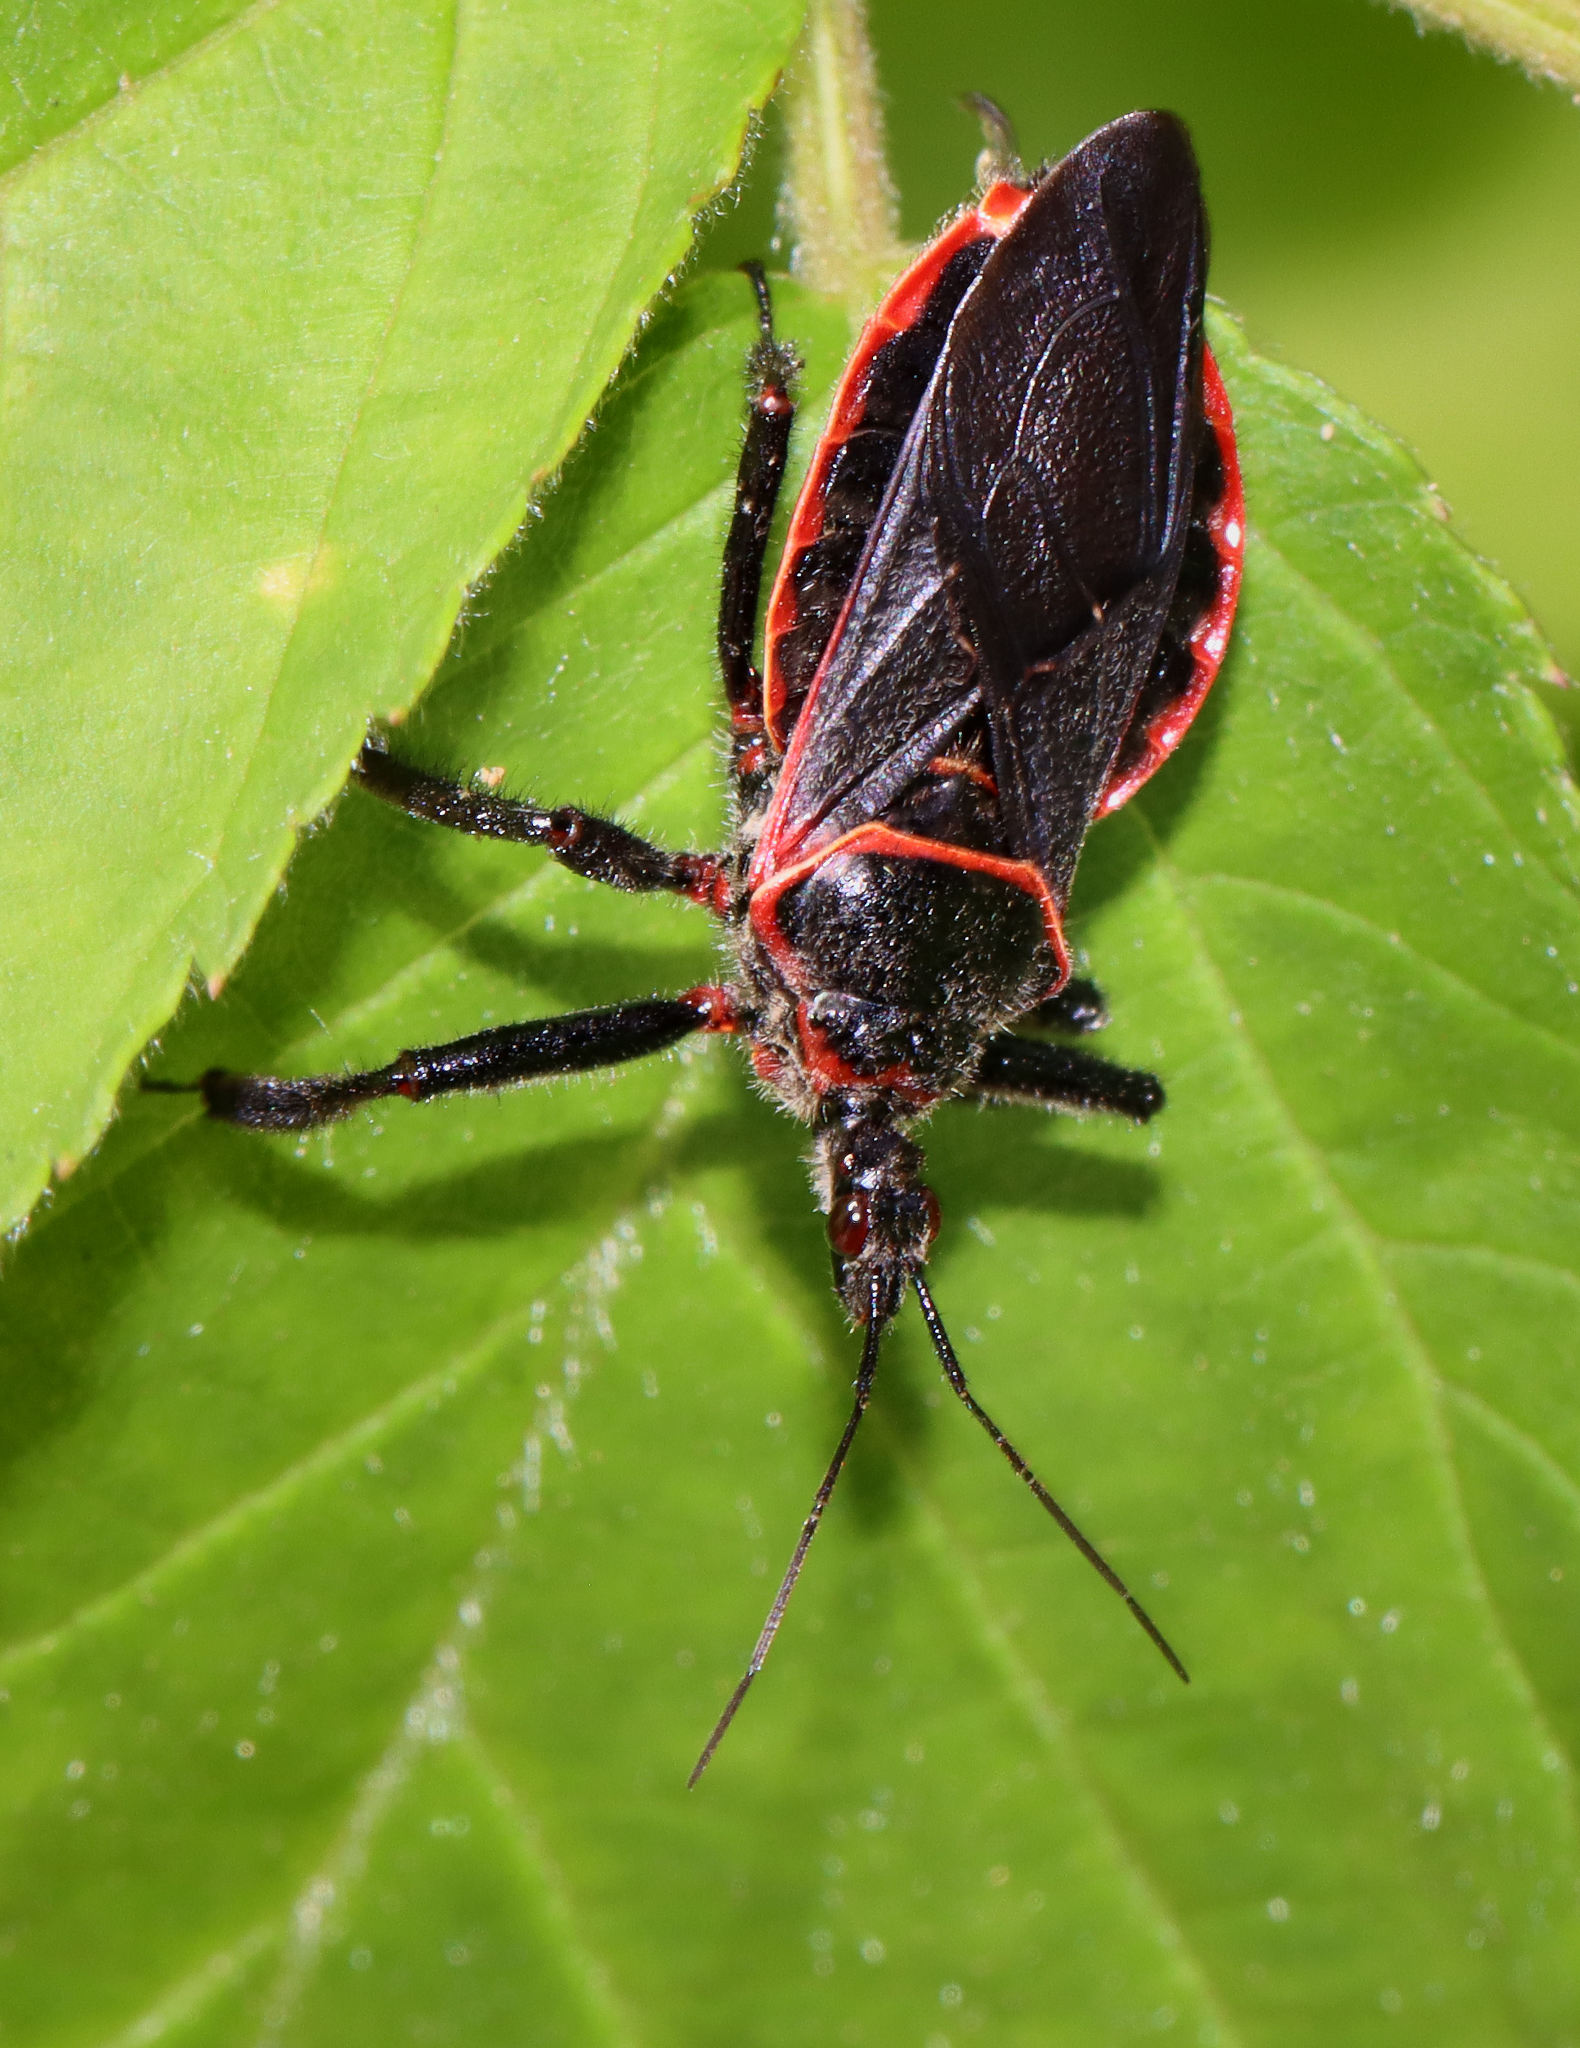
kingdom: Animalia
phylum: Arthropoda
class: Insecta
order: Hemiptera
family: Reduviidae
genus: Apiomerus
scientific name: Apiomerus crassipes
